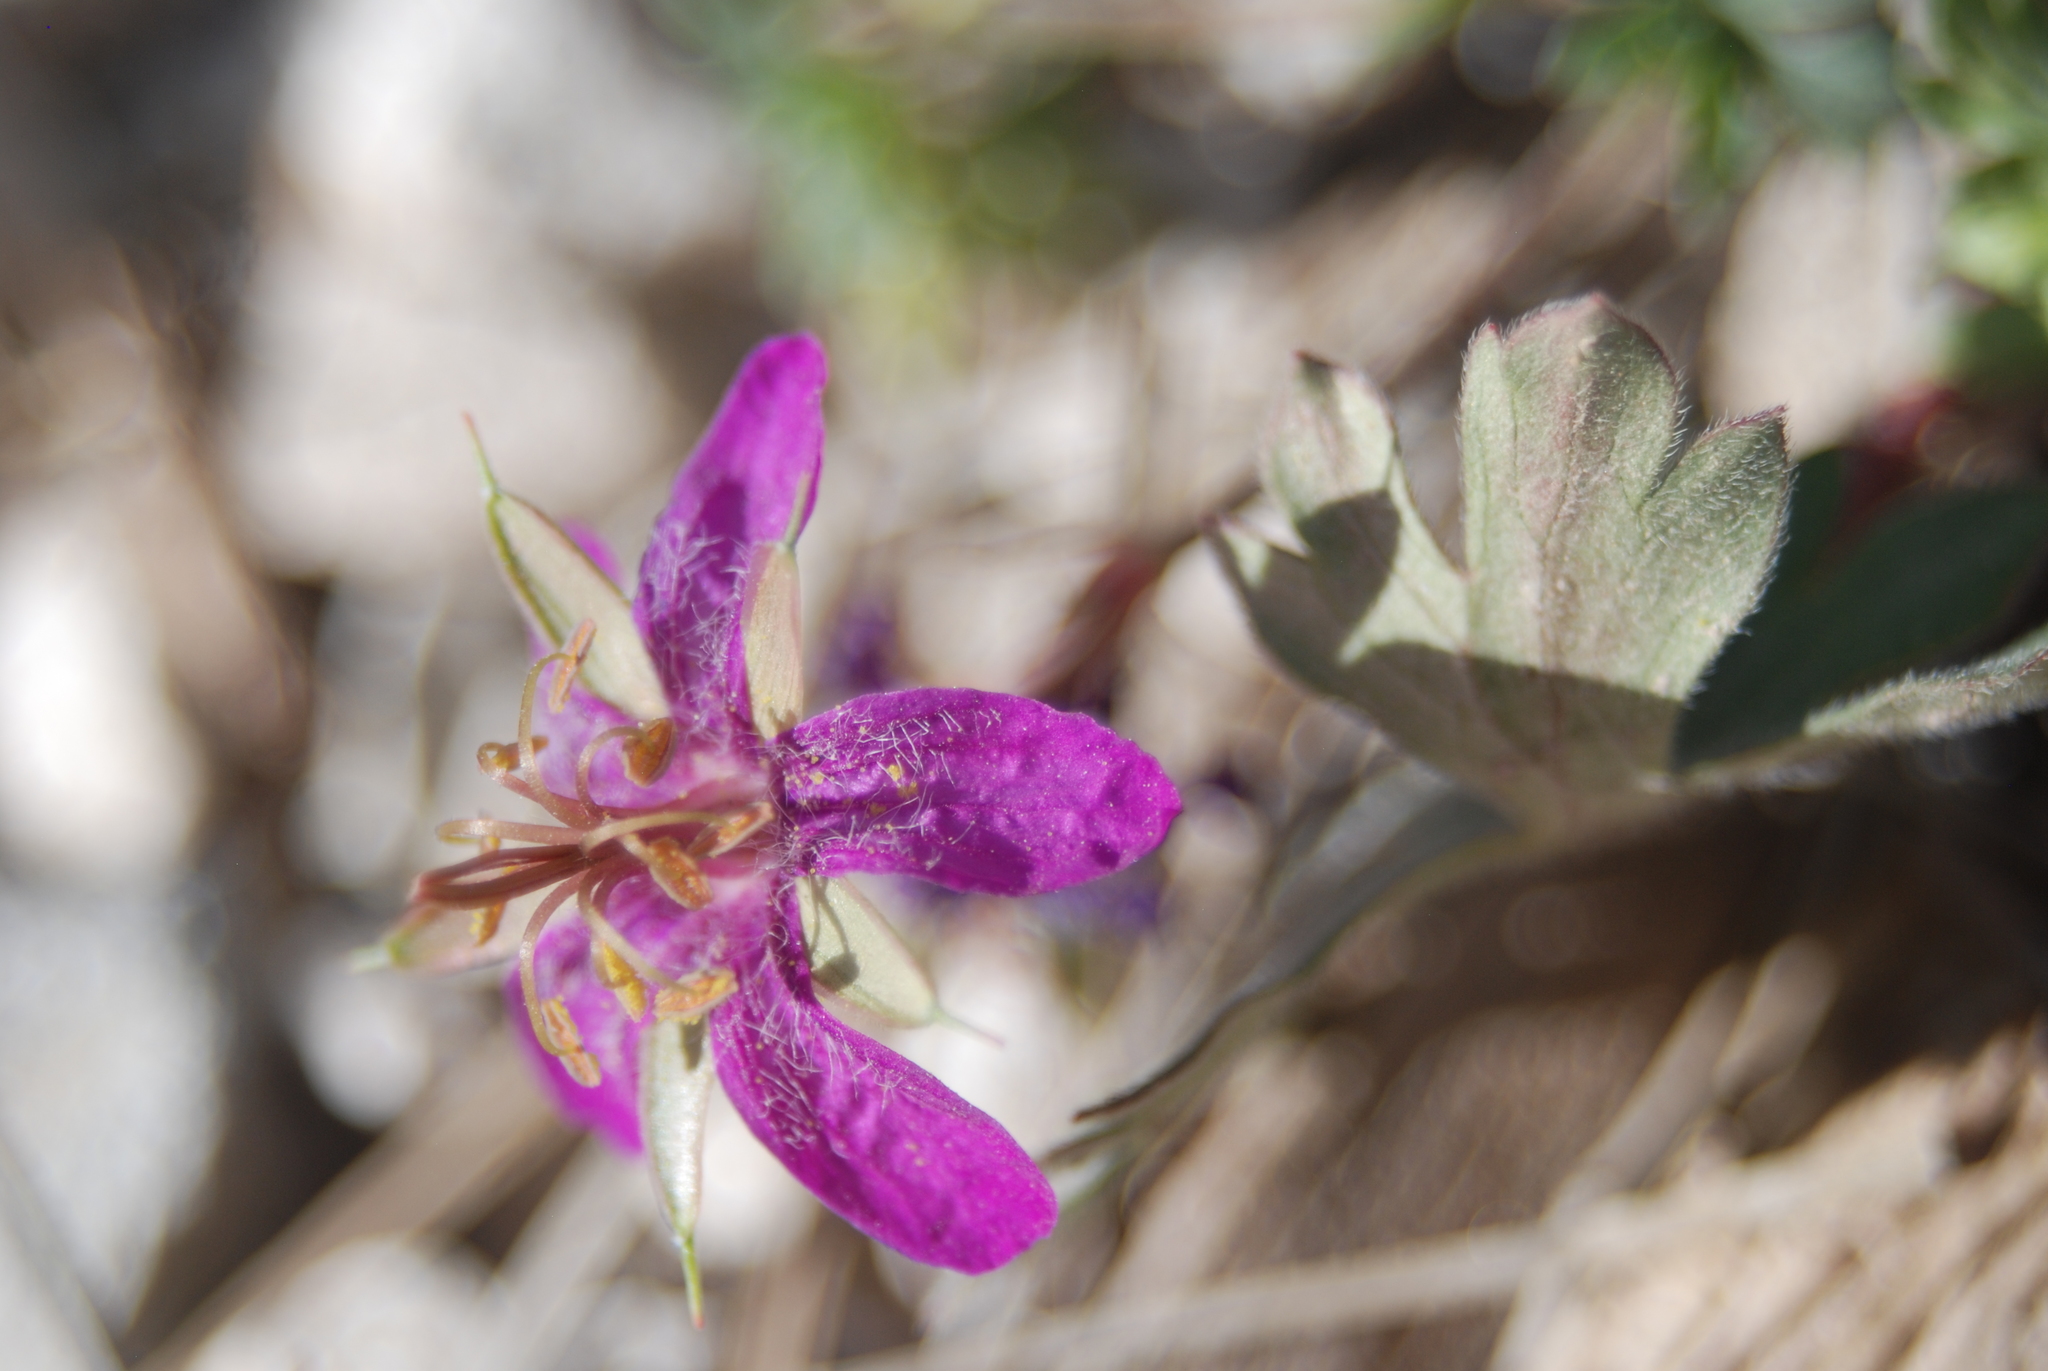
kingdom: Plantae
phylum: Tracheophyta
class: Magnoliopsida
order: Geraniales
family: Geraniaceae
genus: Geranium
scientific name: Geranium caespitosum
